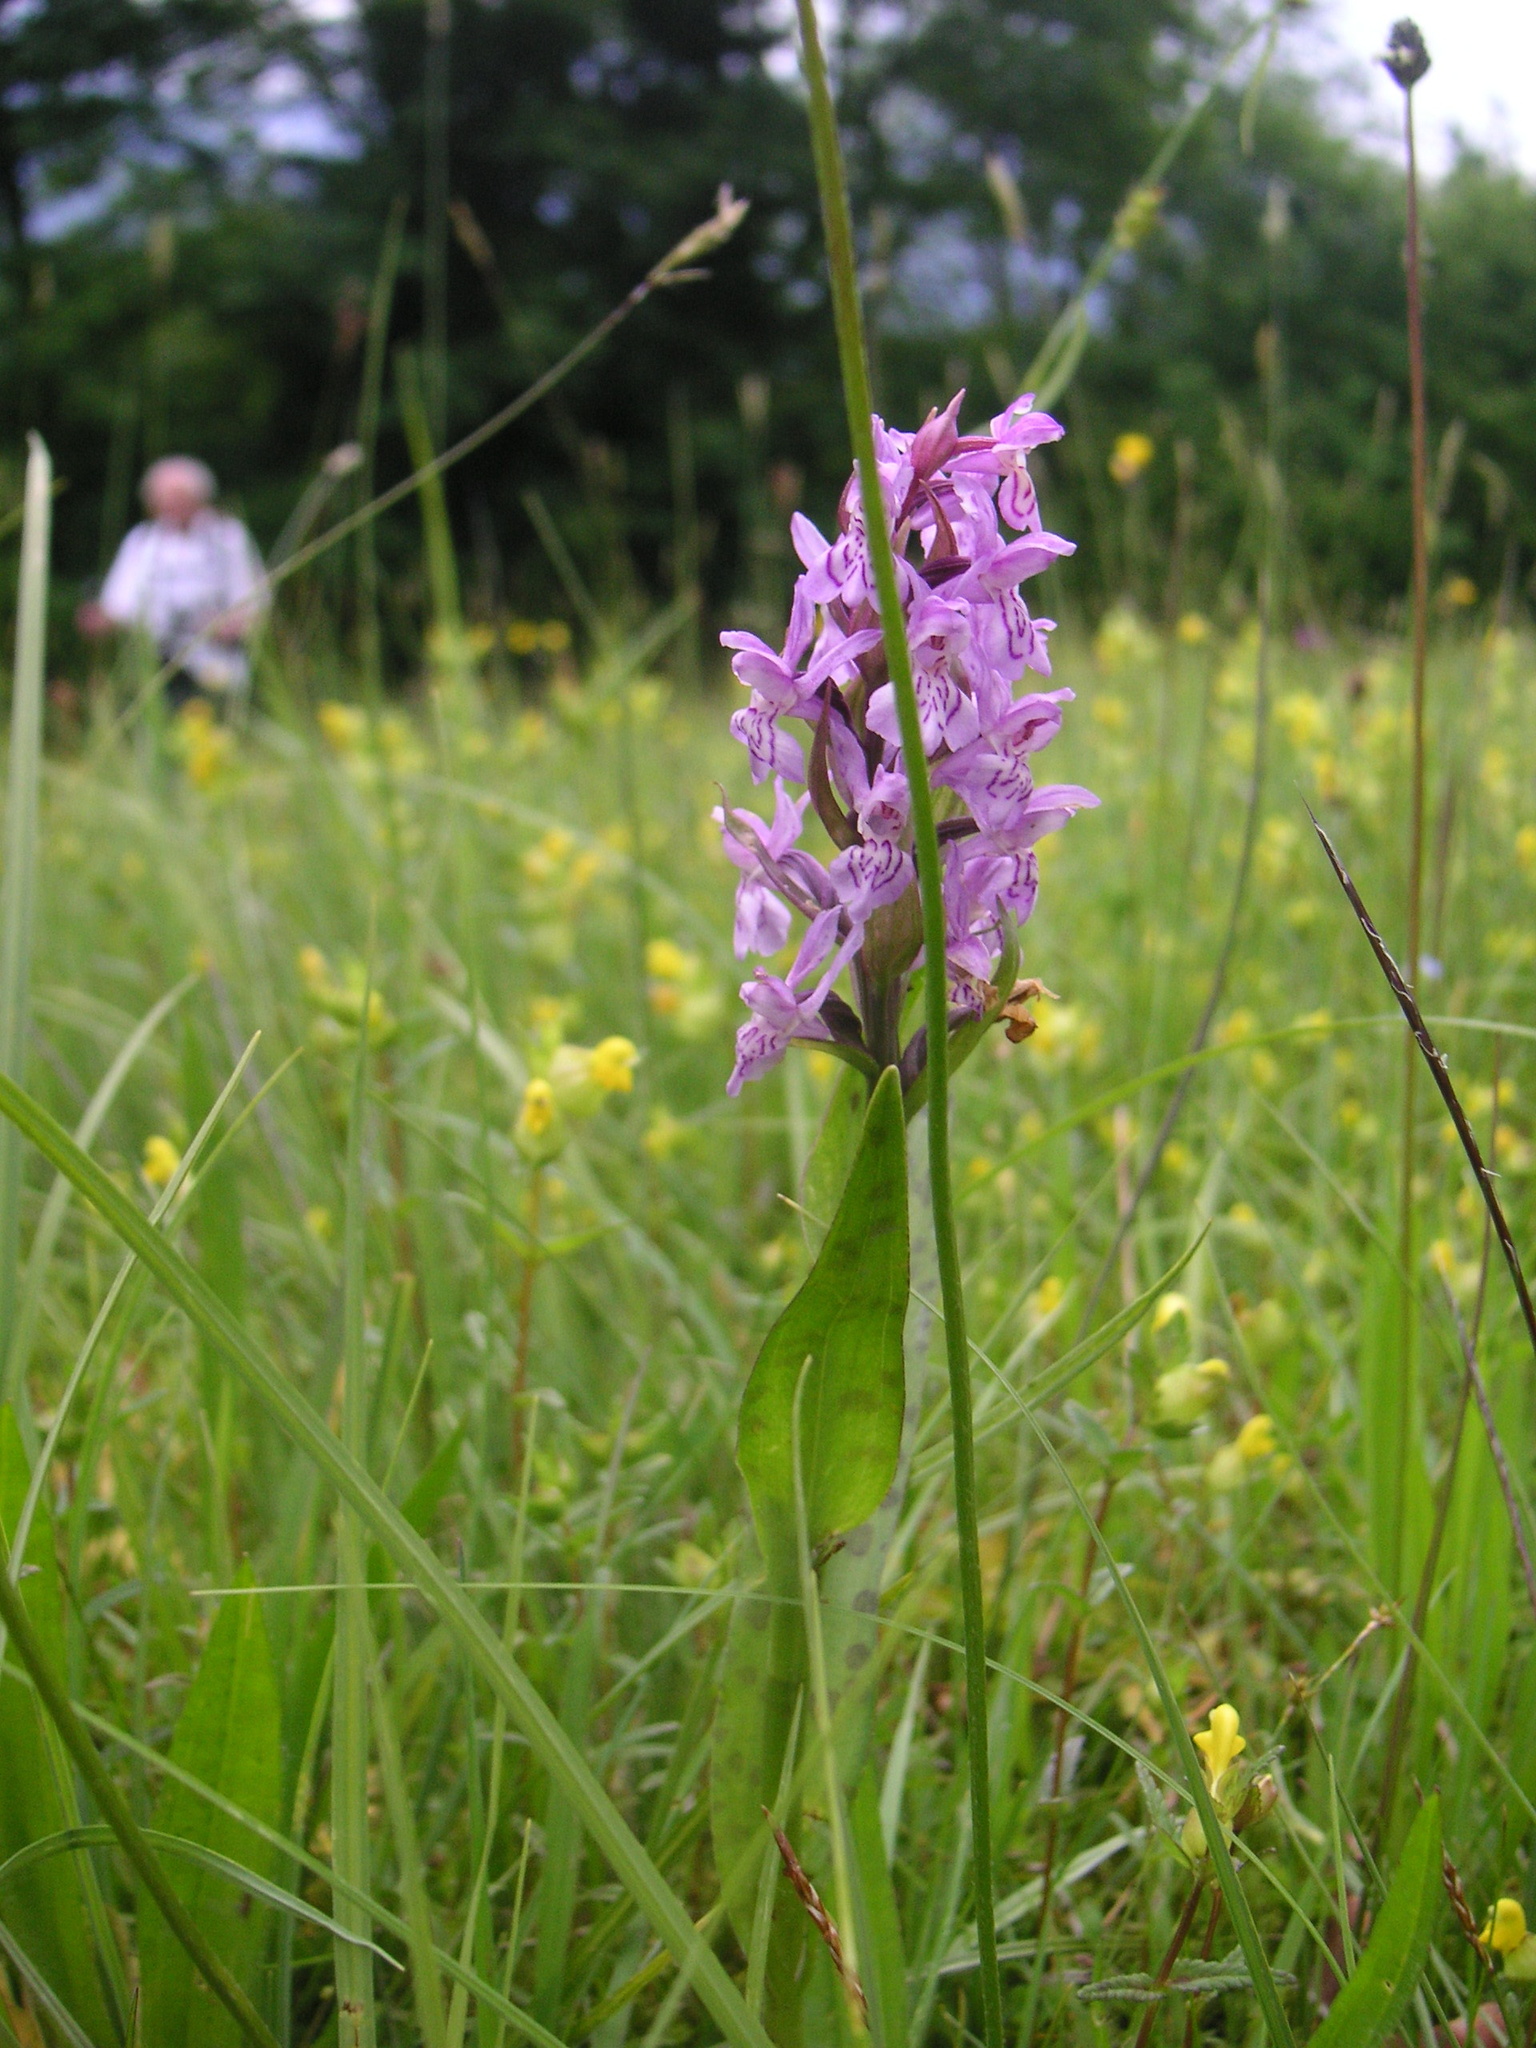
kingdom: Plantae
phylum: Tracheophyta
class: Liliopsida
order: Asparagales
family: Orchidaceae
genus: Dactylorhiza
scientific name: Dactylorhiza maculata
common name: Heath spotted-orchid
